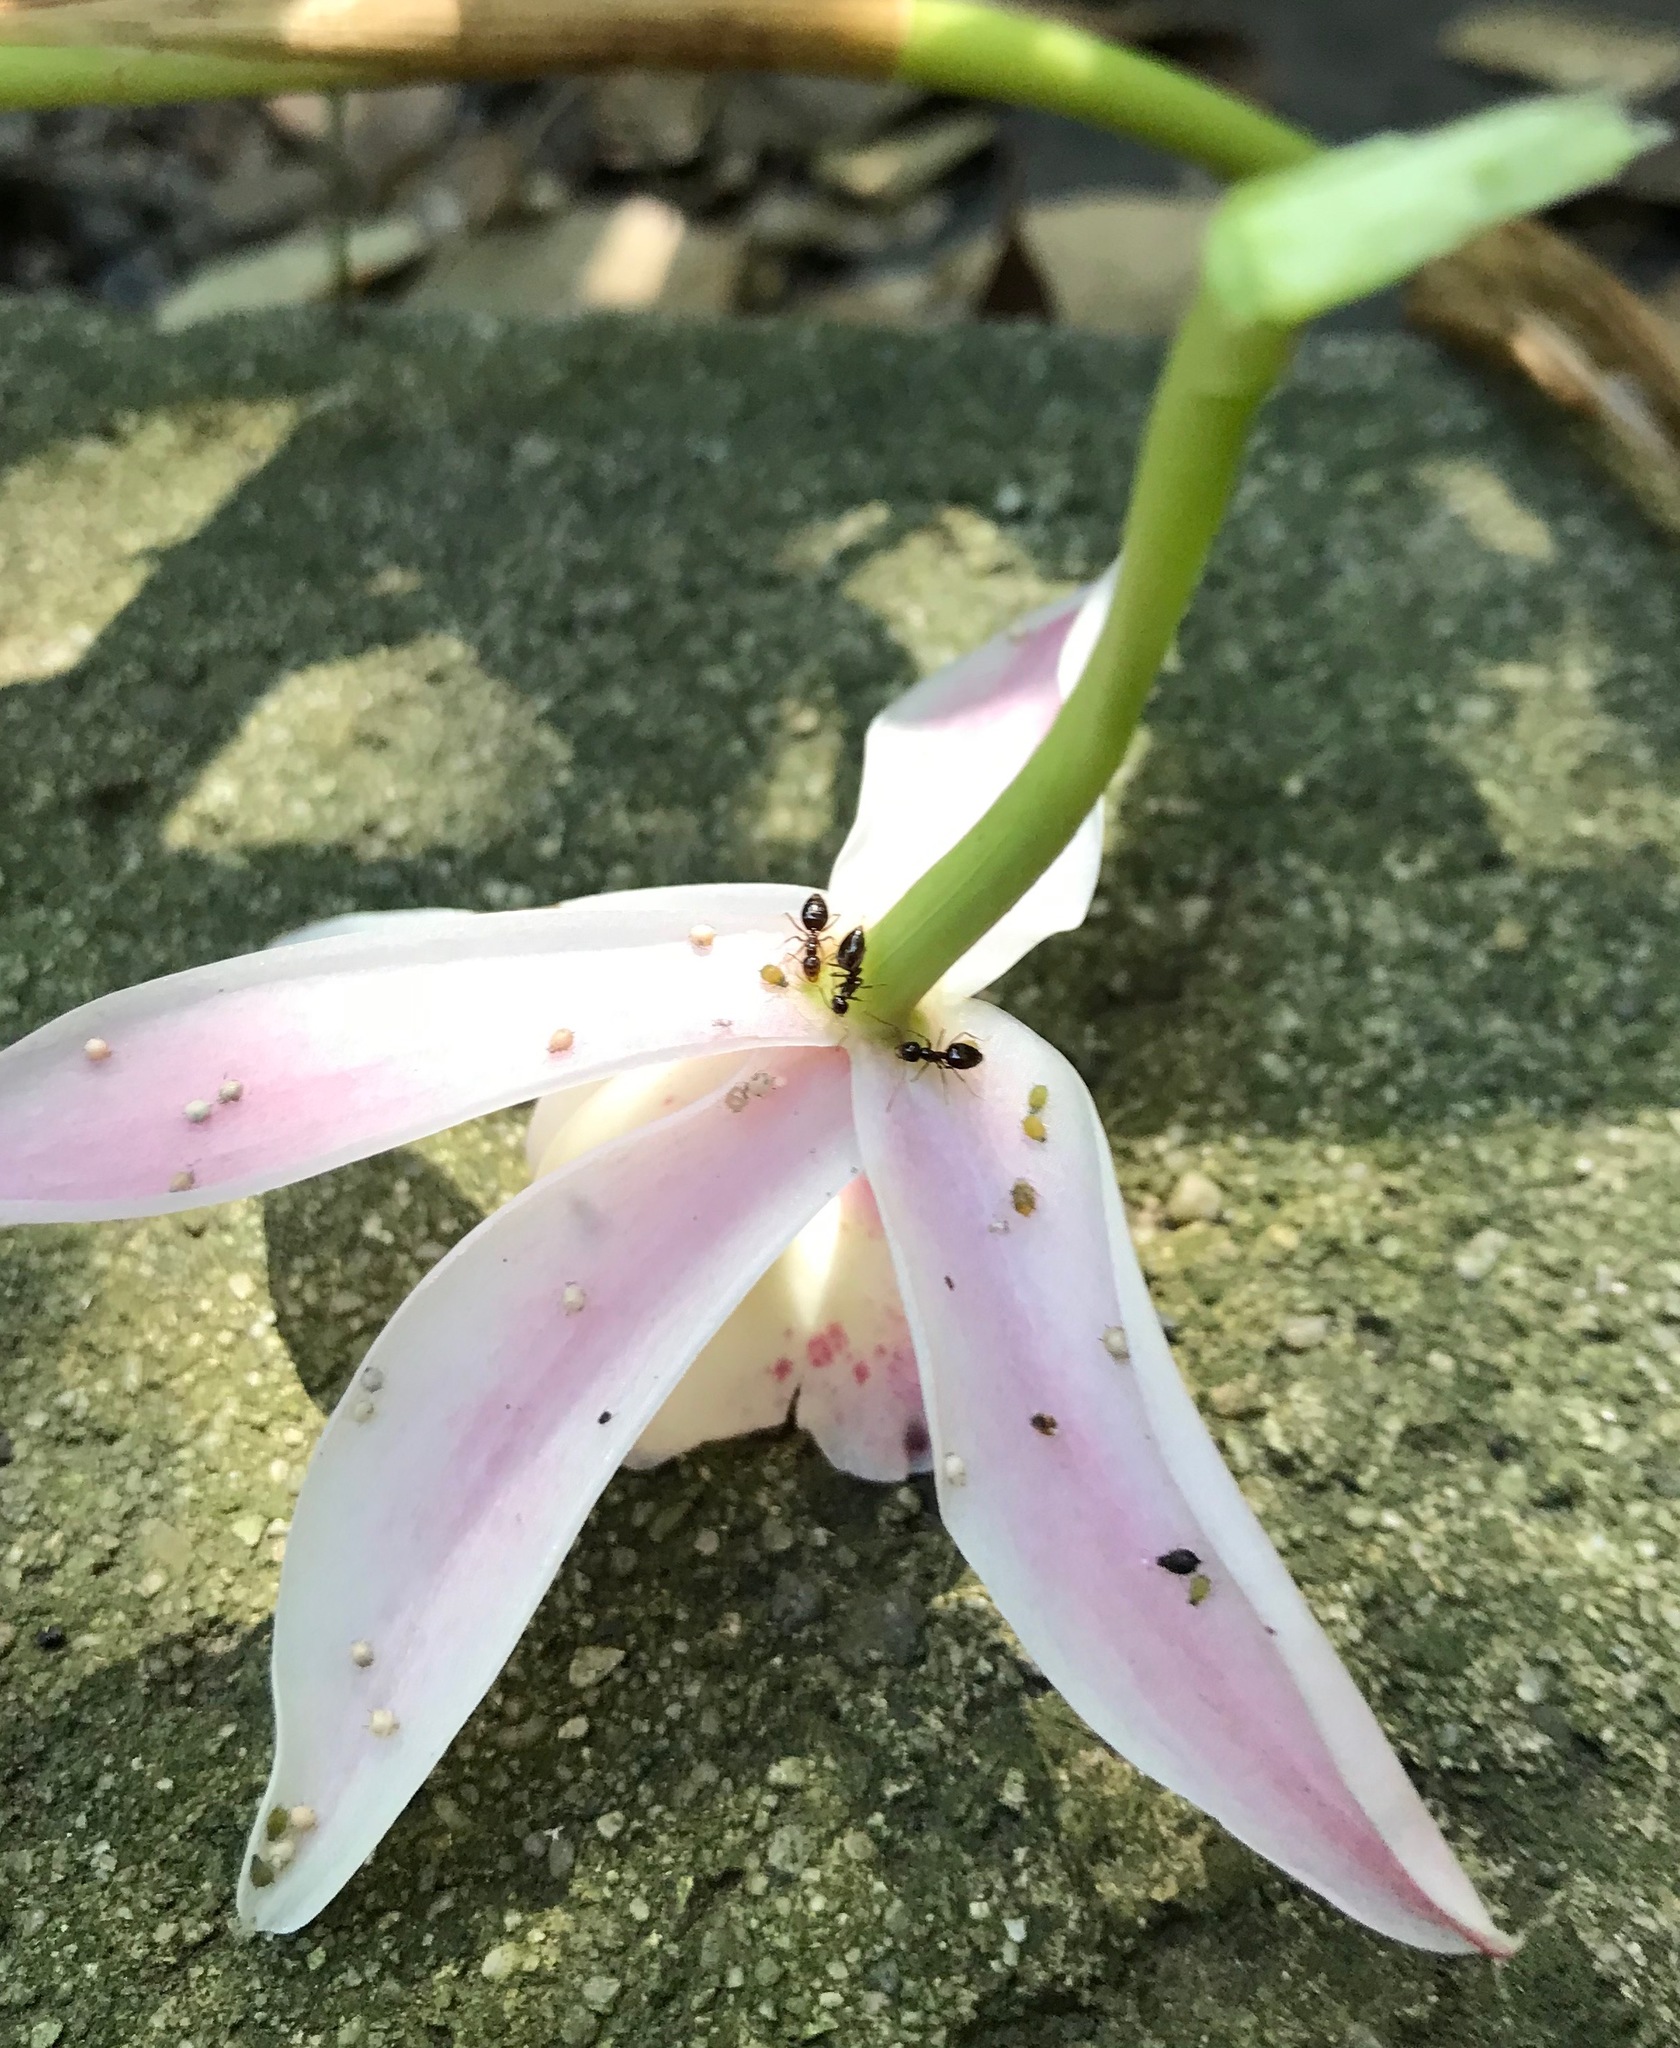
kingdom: Animalia
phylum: Arthropoda
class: Insecta
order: Hymenoptera
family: Formicidae
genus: Prenolepis
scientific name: Prenolepis imparis
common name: Small honey ant
